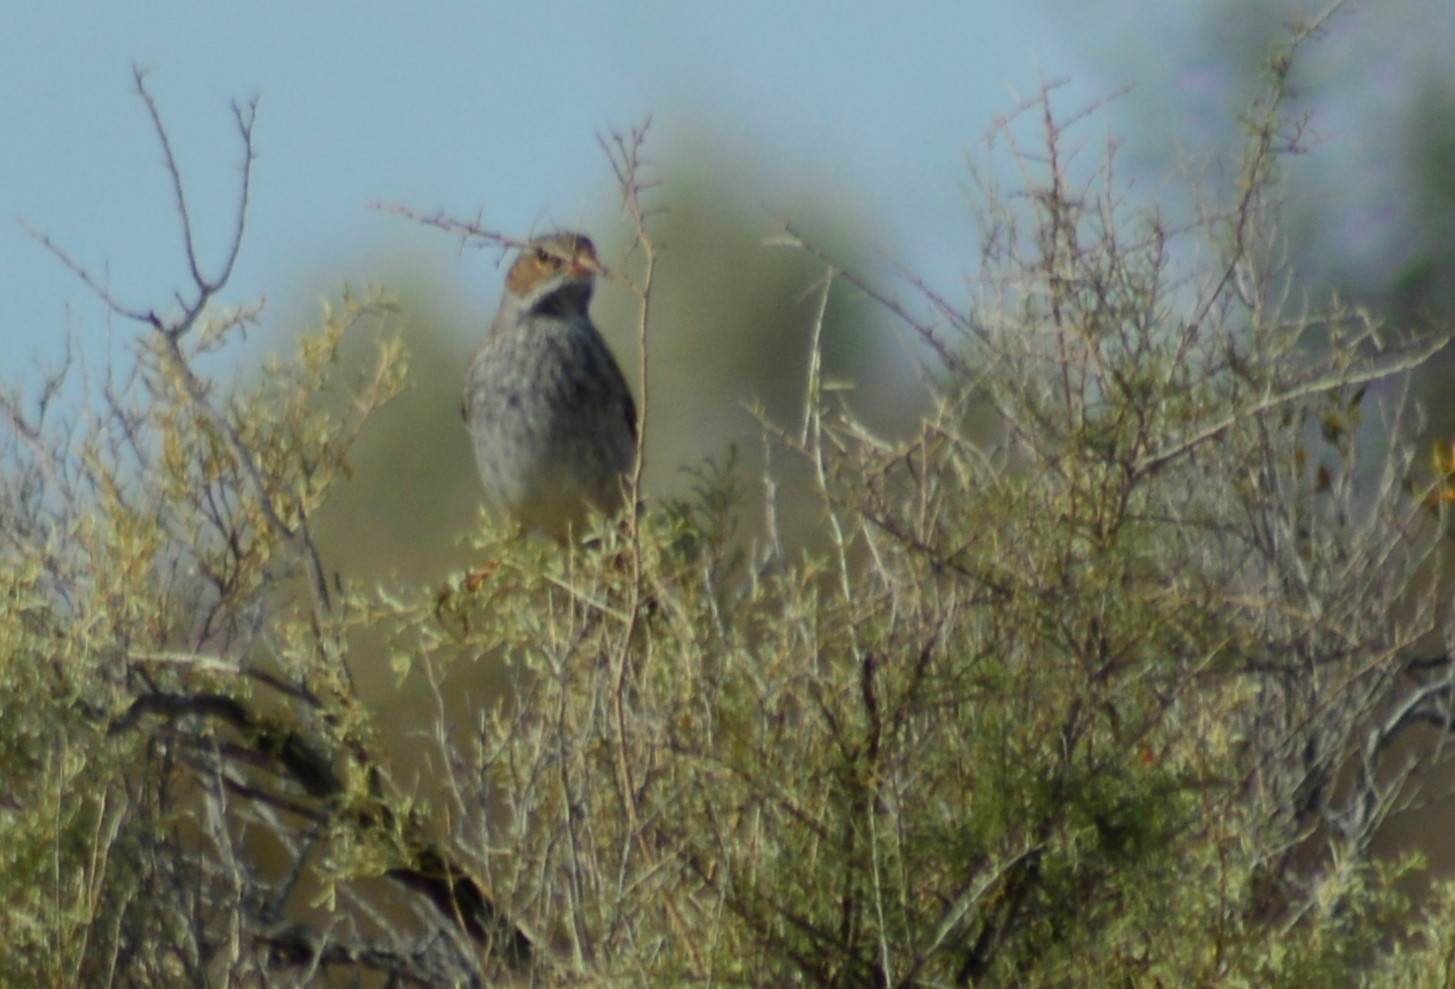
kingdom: Animalia
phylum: Chordata
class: Aves
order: Passeriformes
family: Thraupidae
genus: Rhopospina
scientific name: Rhopospina fruticeti
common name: Mourning sierra finch
